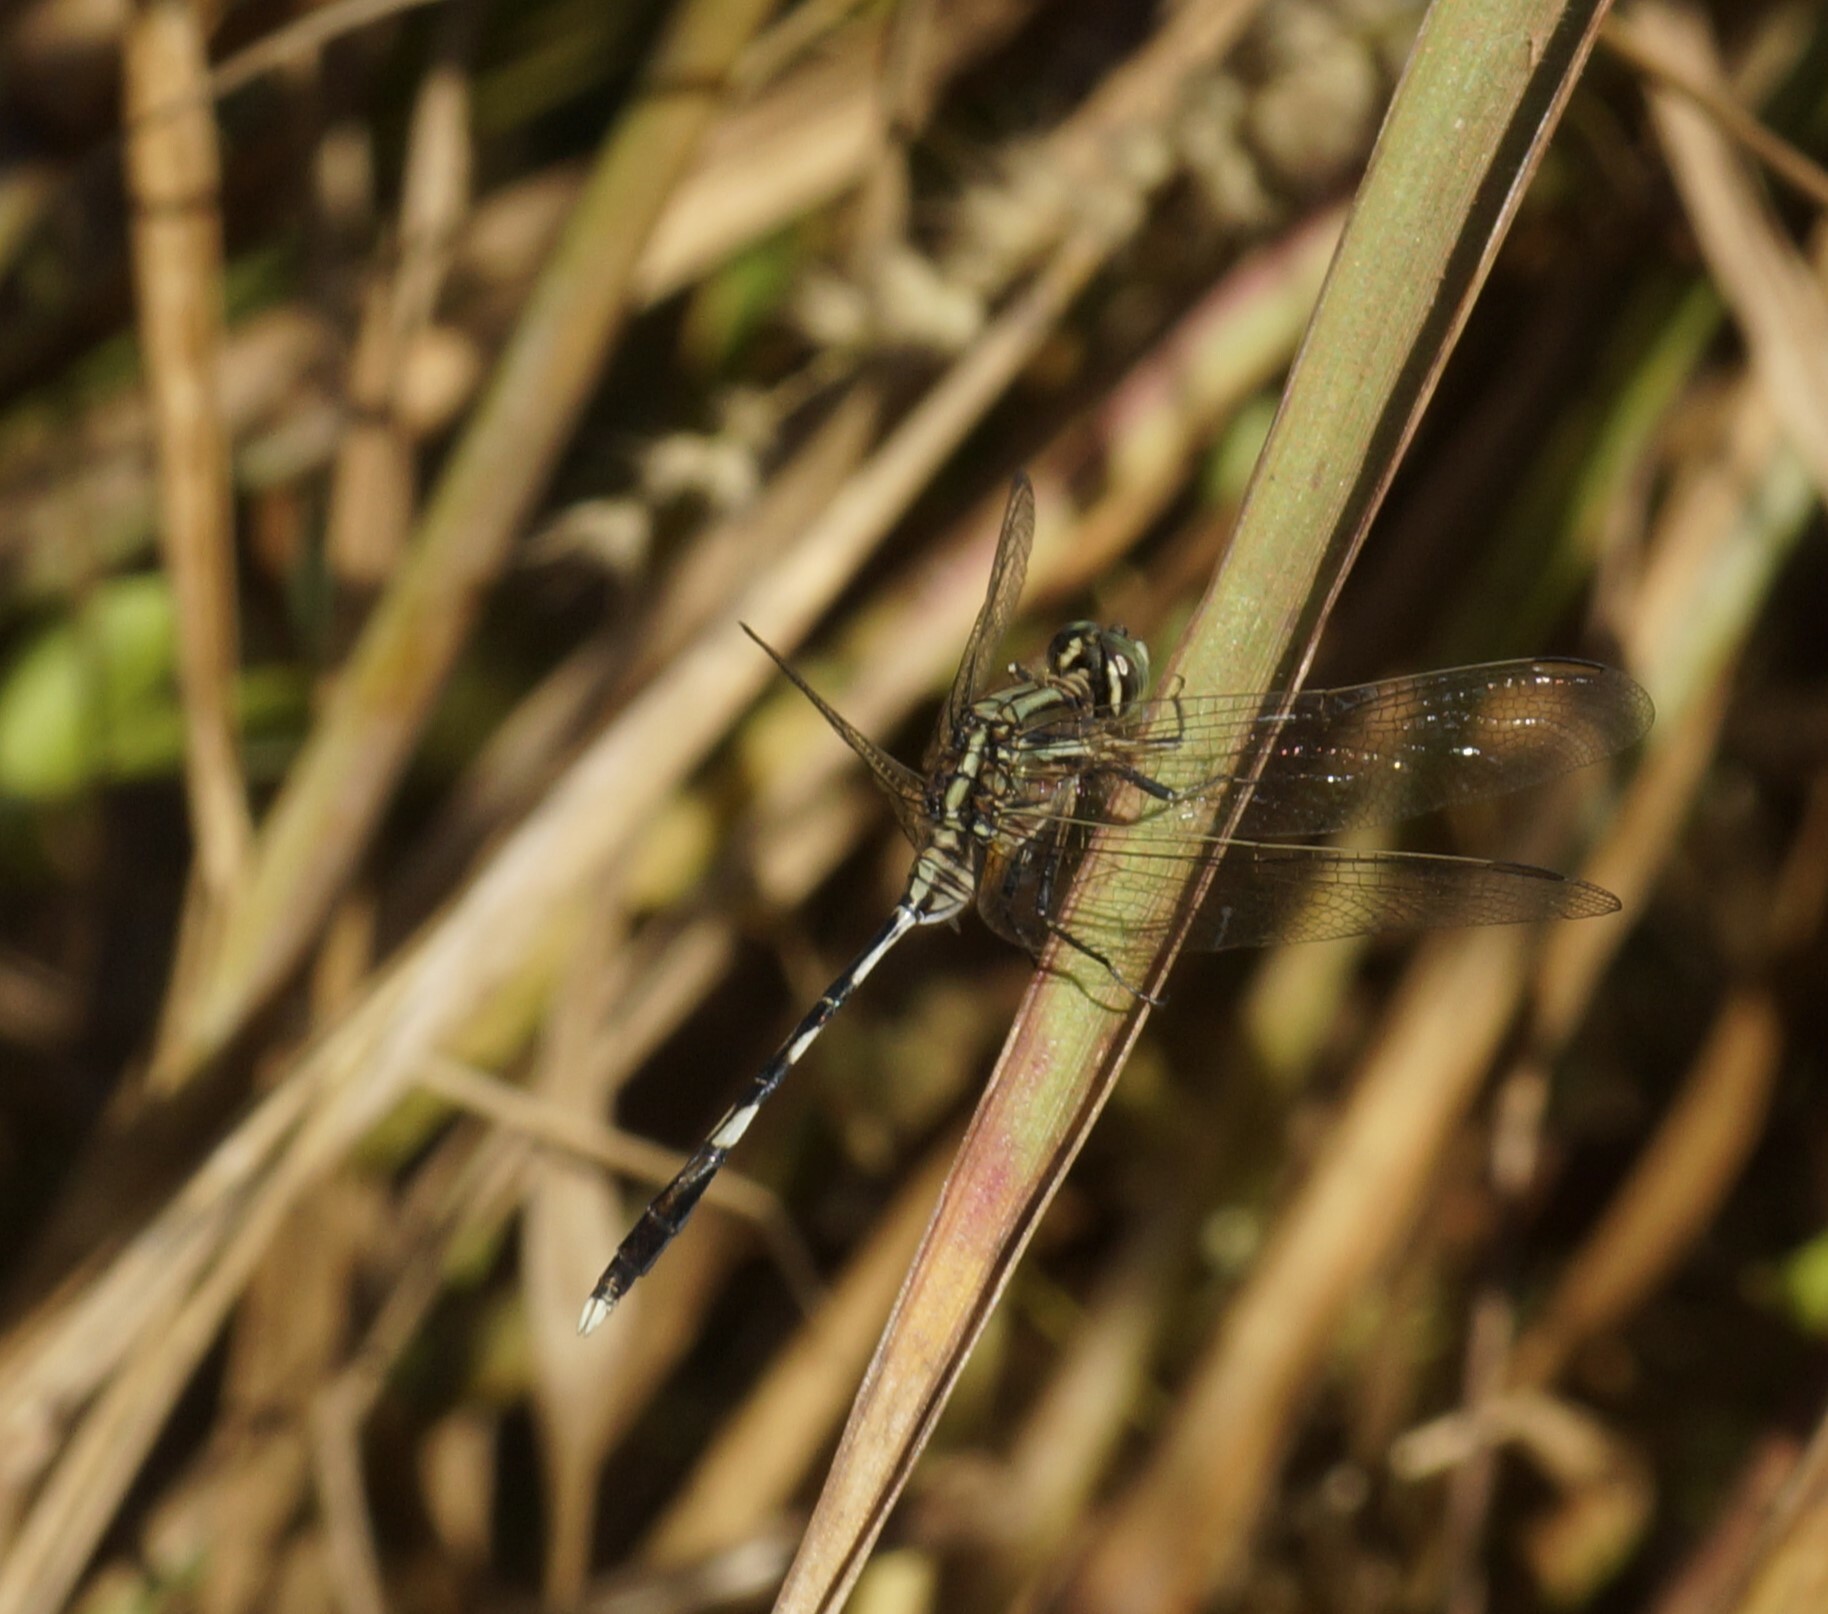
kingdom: Animalia
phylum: Arthropoda
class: Insecta
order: Odonata
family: Libellulidae
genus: Orthetrum
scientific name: Orthetrum sabina
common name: Slender skimmer
